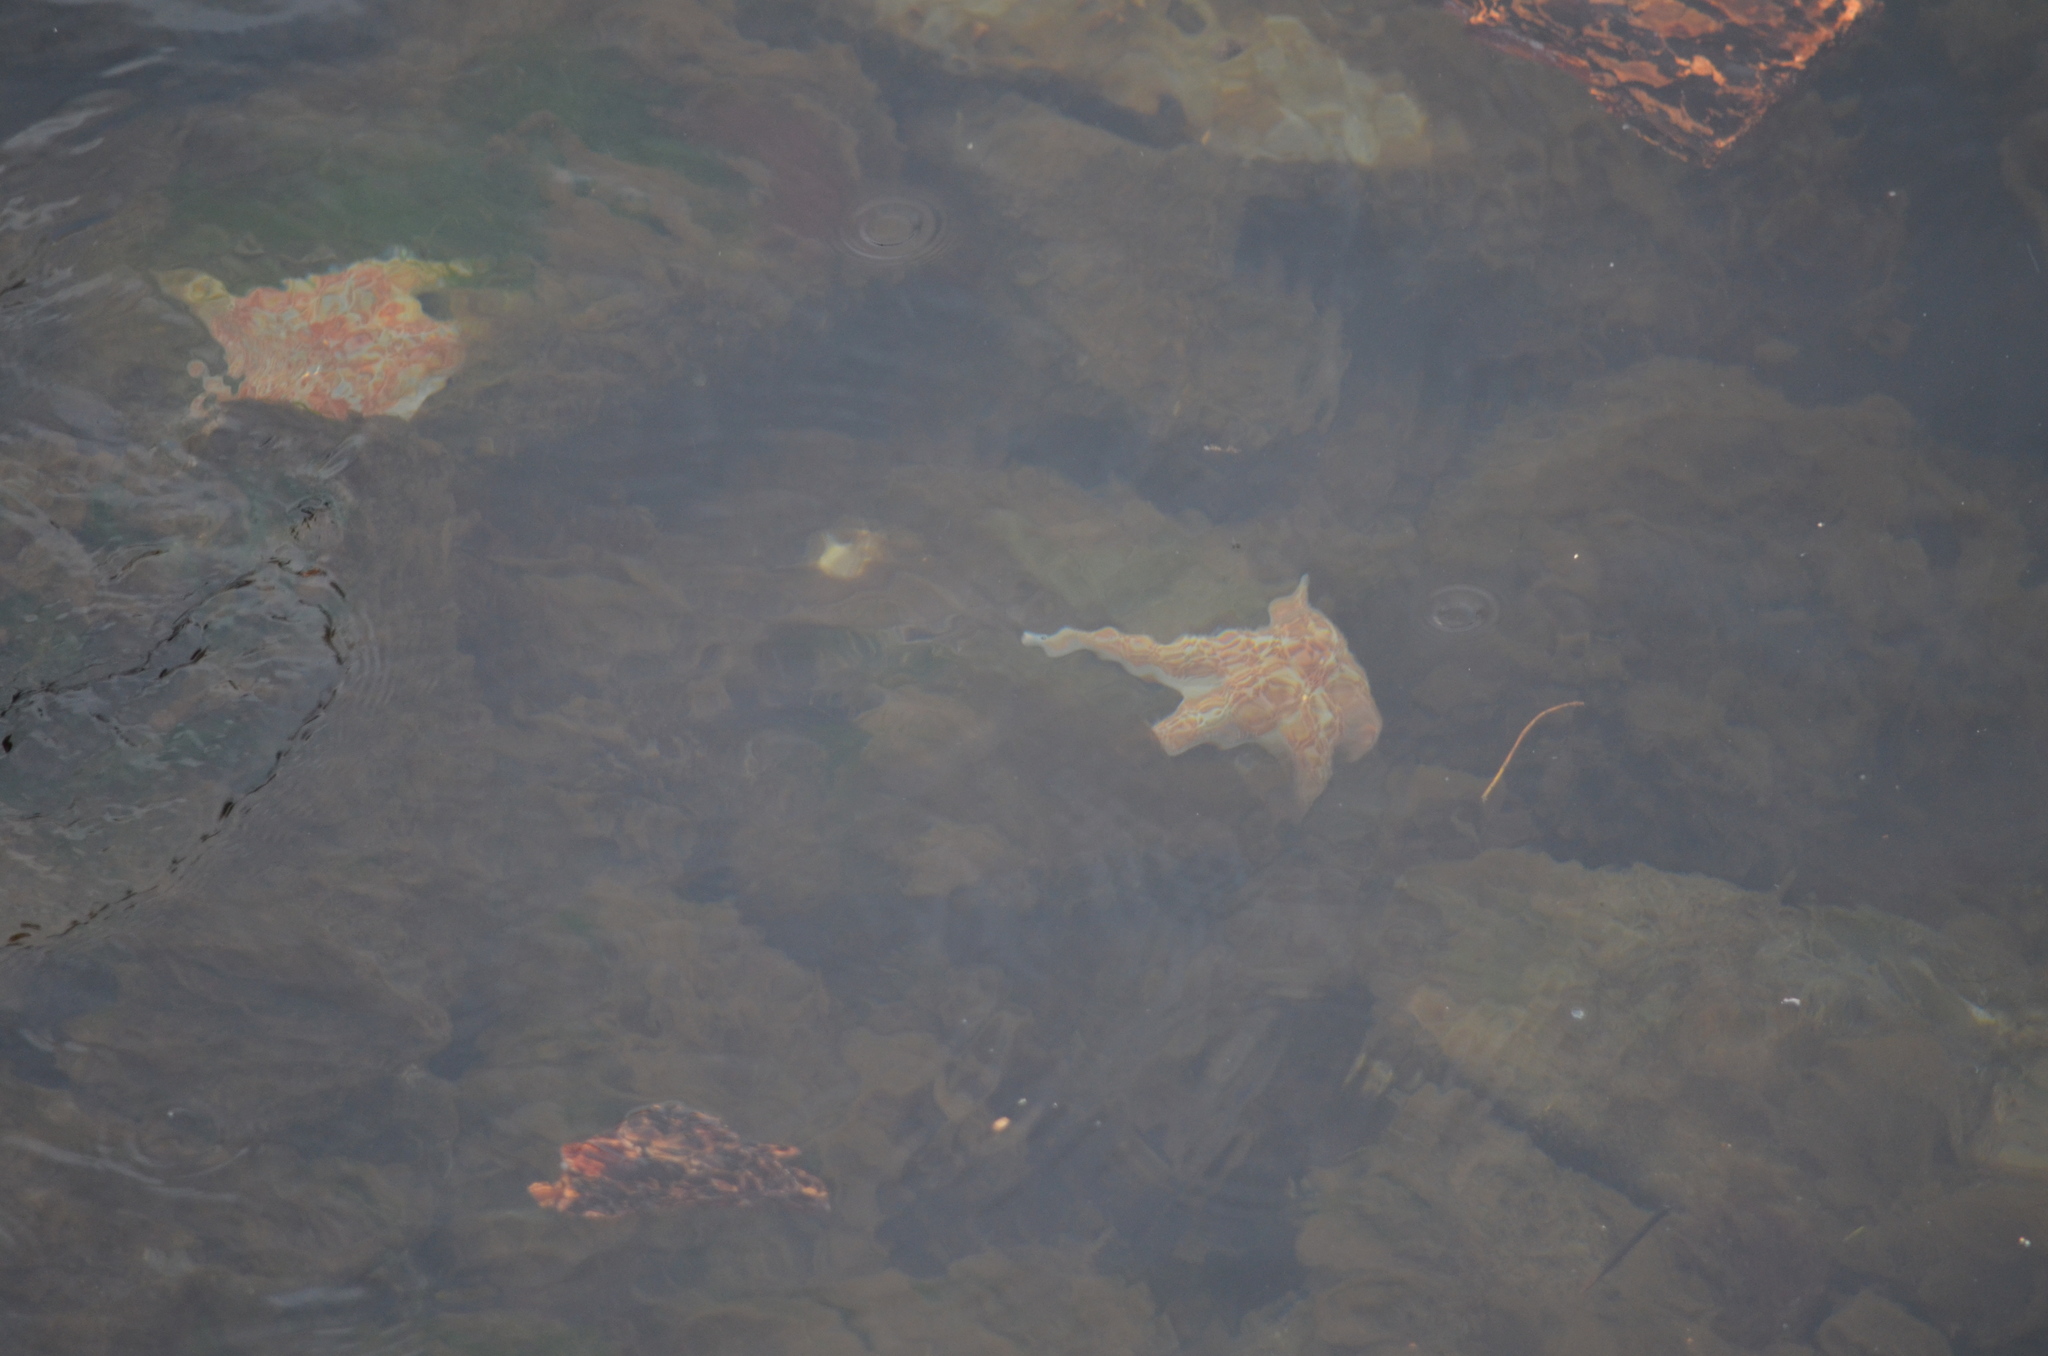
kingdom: Animalia
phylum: Echinodermata
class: Asteroidea
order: Valvatida
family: Asteropseidae
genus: Dermasterias
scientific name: Dermasterias imbricata
